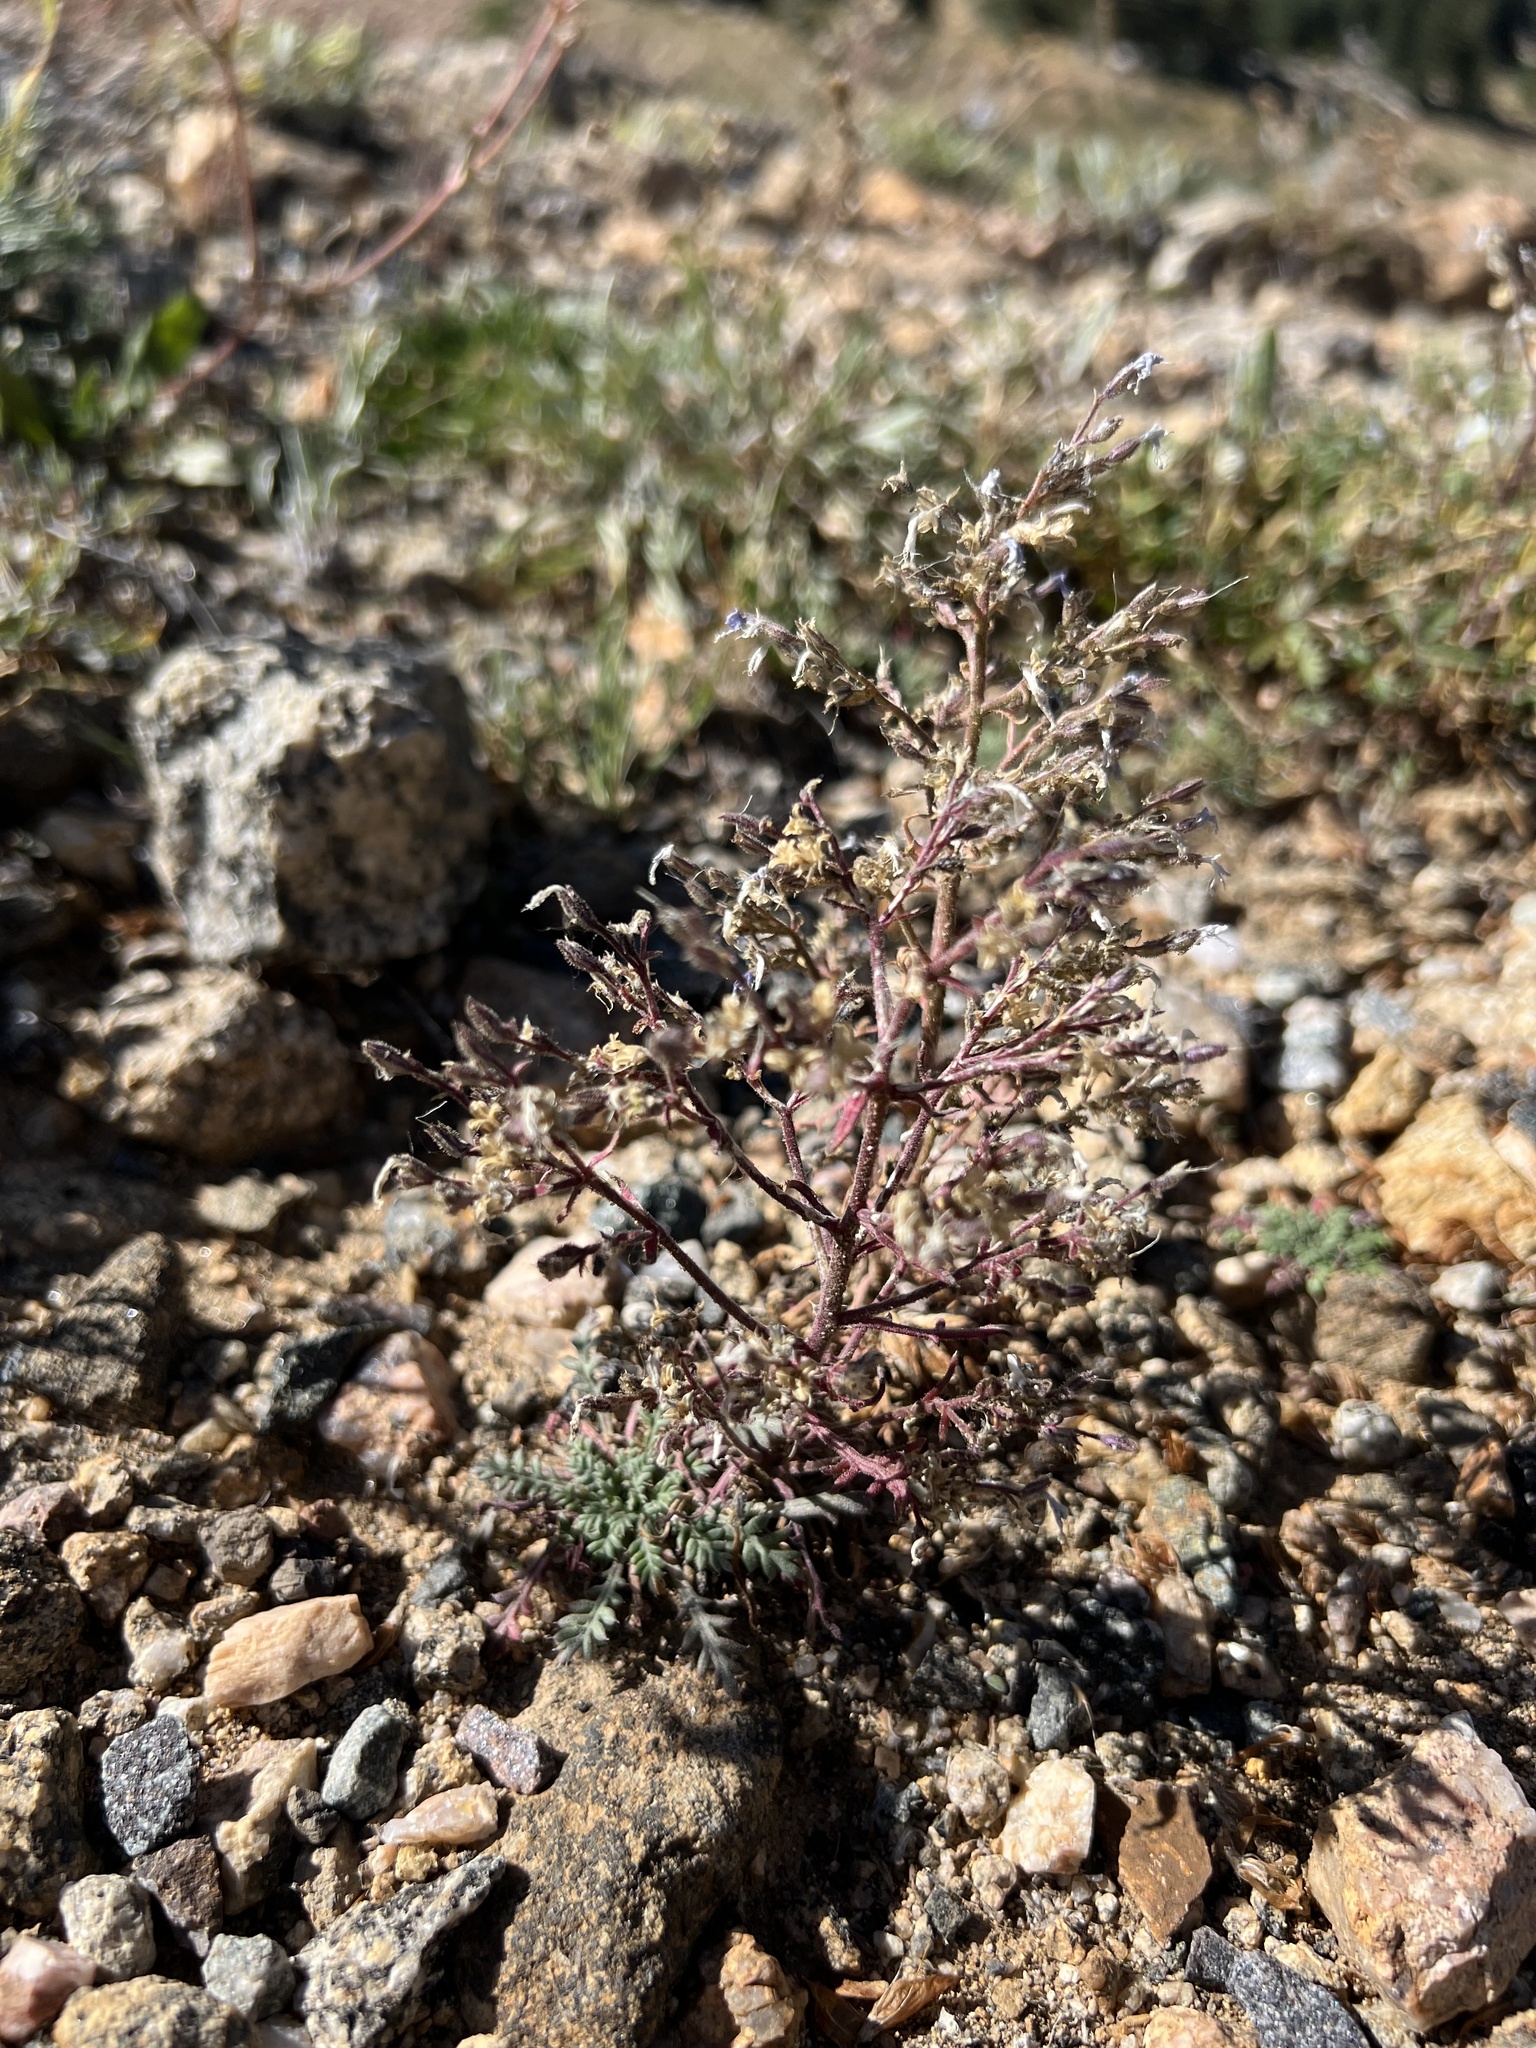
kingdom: Plantae
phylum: Tracheophyta
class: Magnoliopsida
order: Ericales
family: Polemoniaceae
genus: Aliciella
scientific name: Aliciella pinnatifida
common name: Sticky gilia
